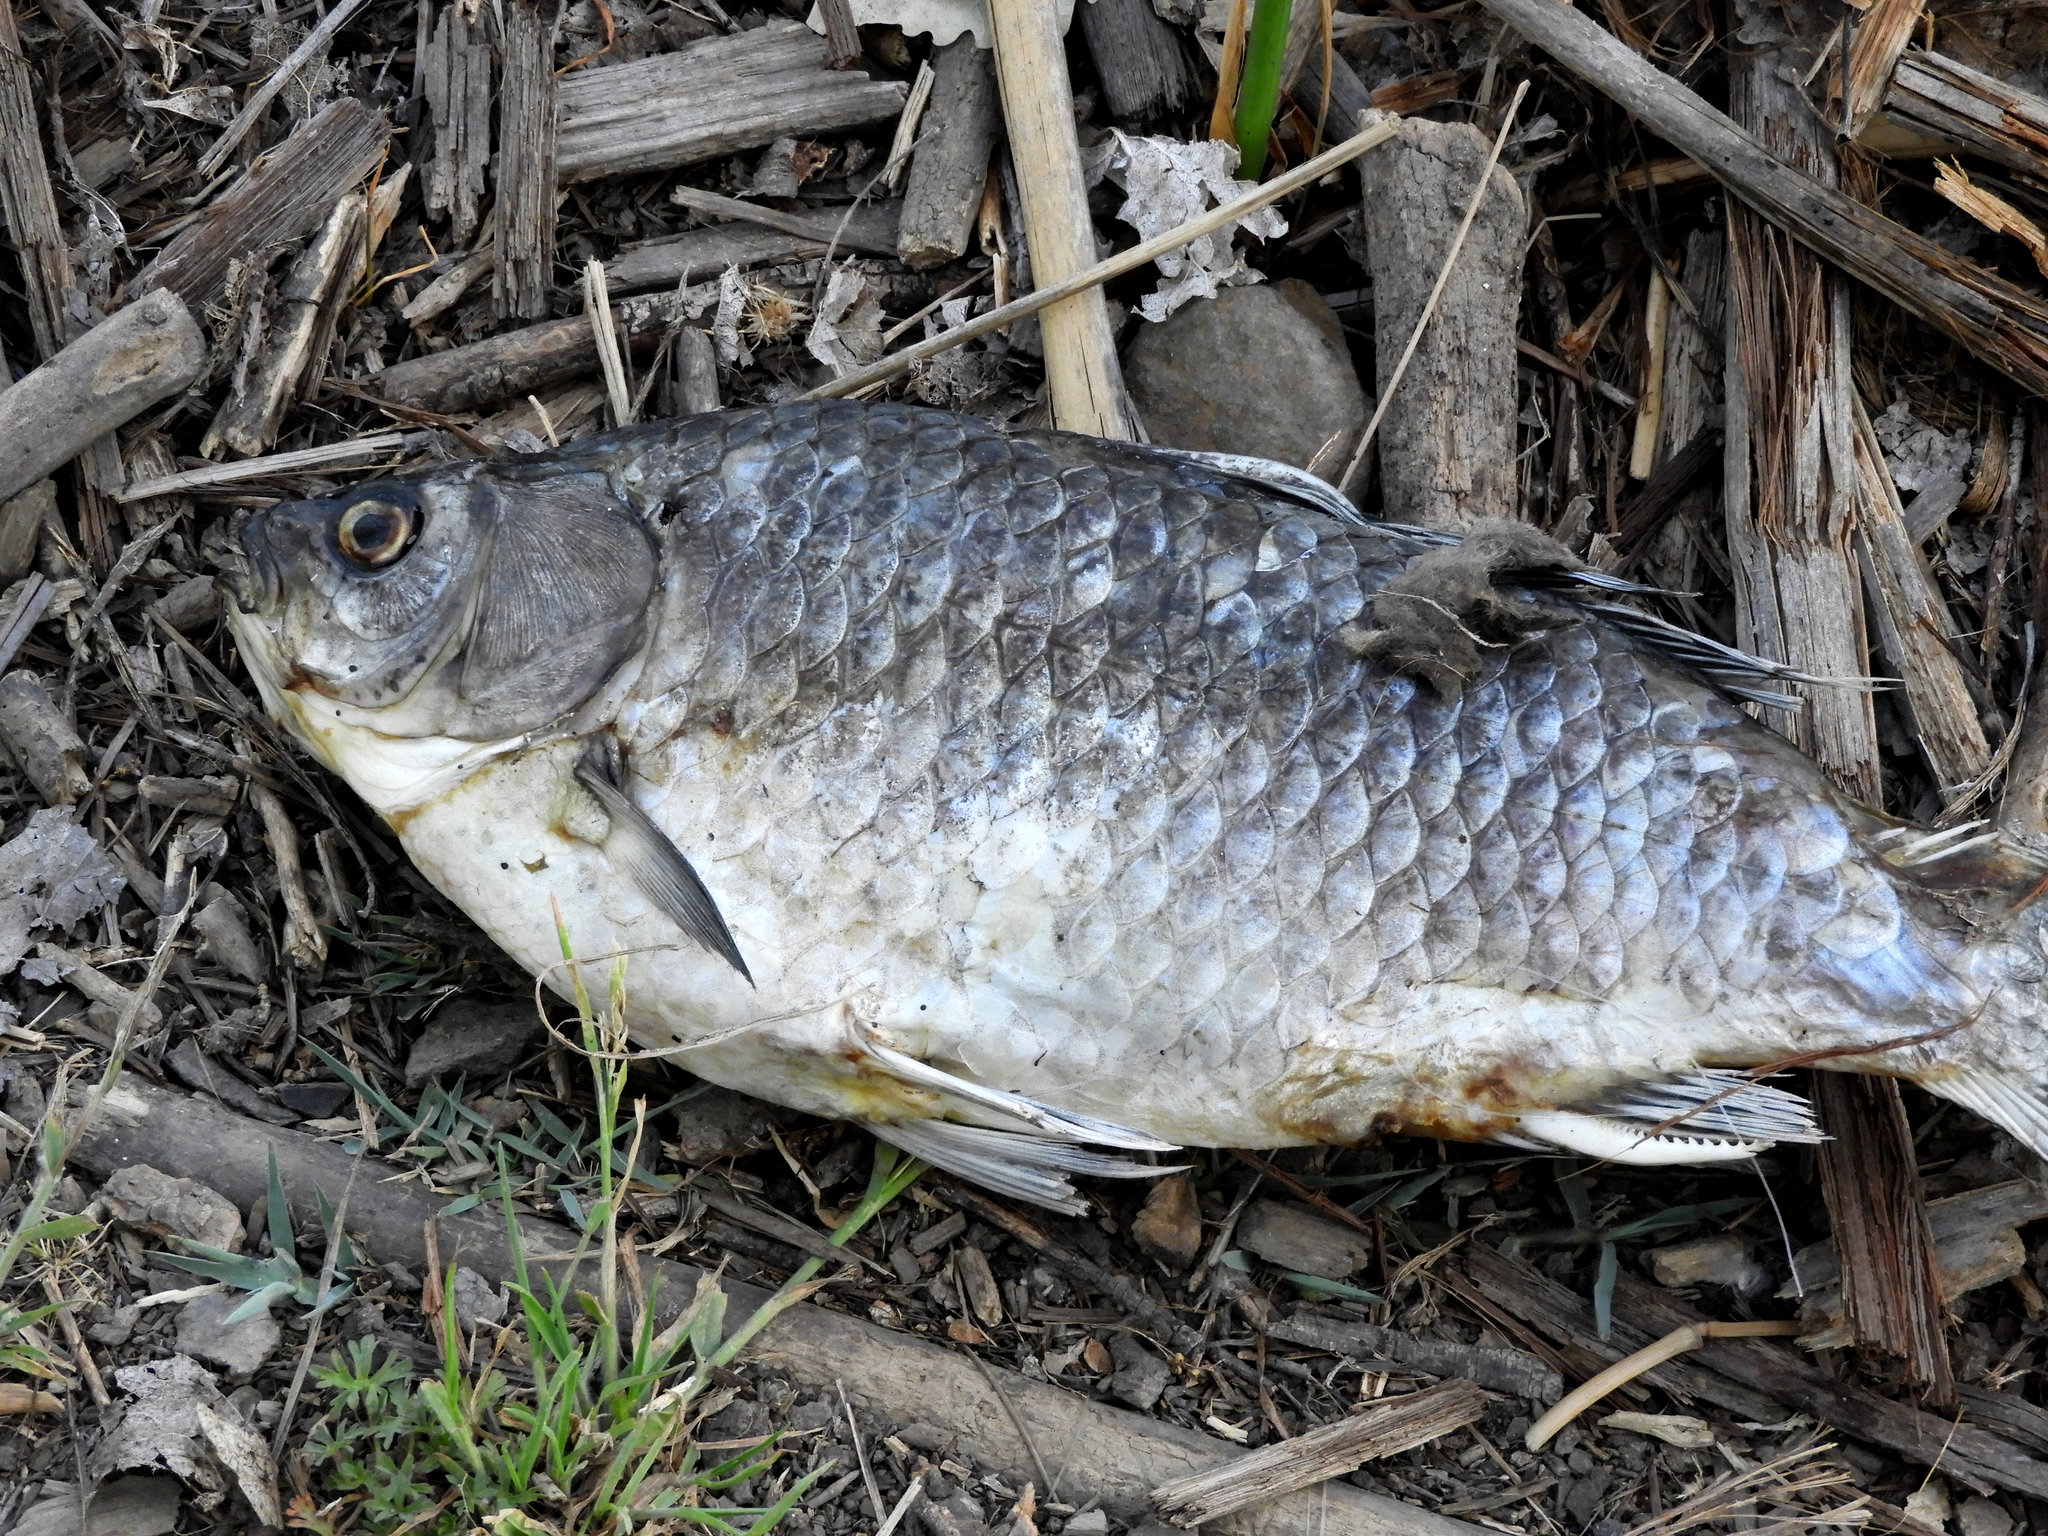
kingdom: Animalia
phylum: Chordata
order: Cypriniformes
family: Cyprinidae
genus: Carassius
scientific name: Carassius auratus
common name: Goldfish
